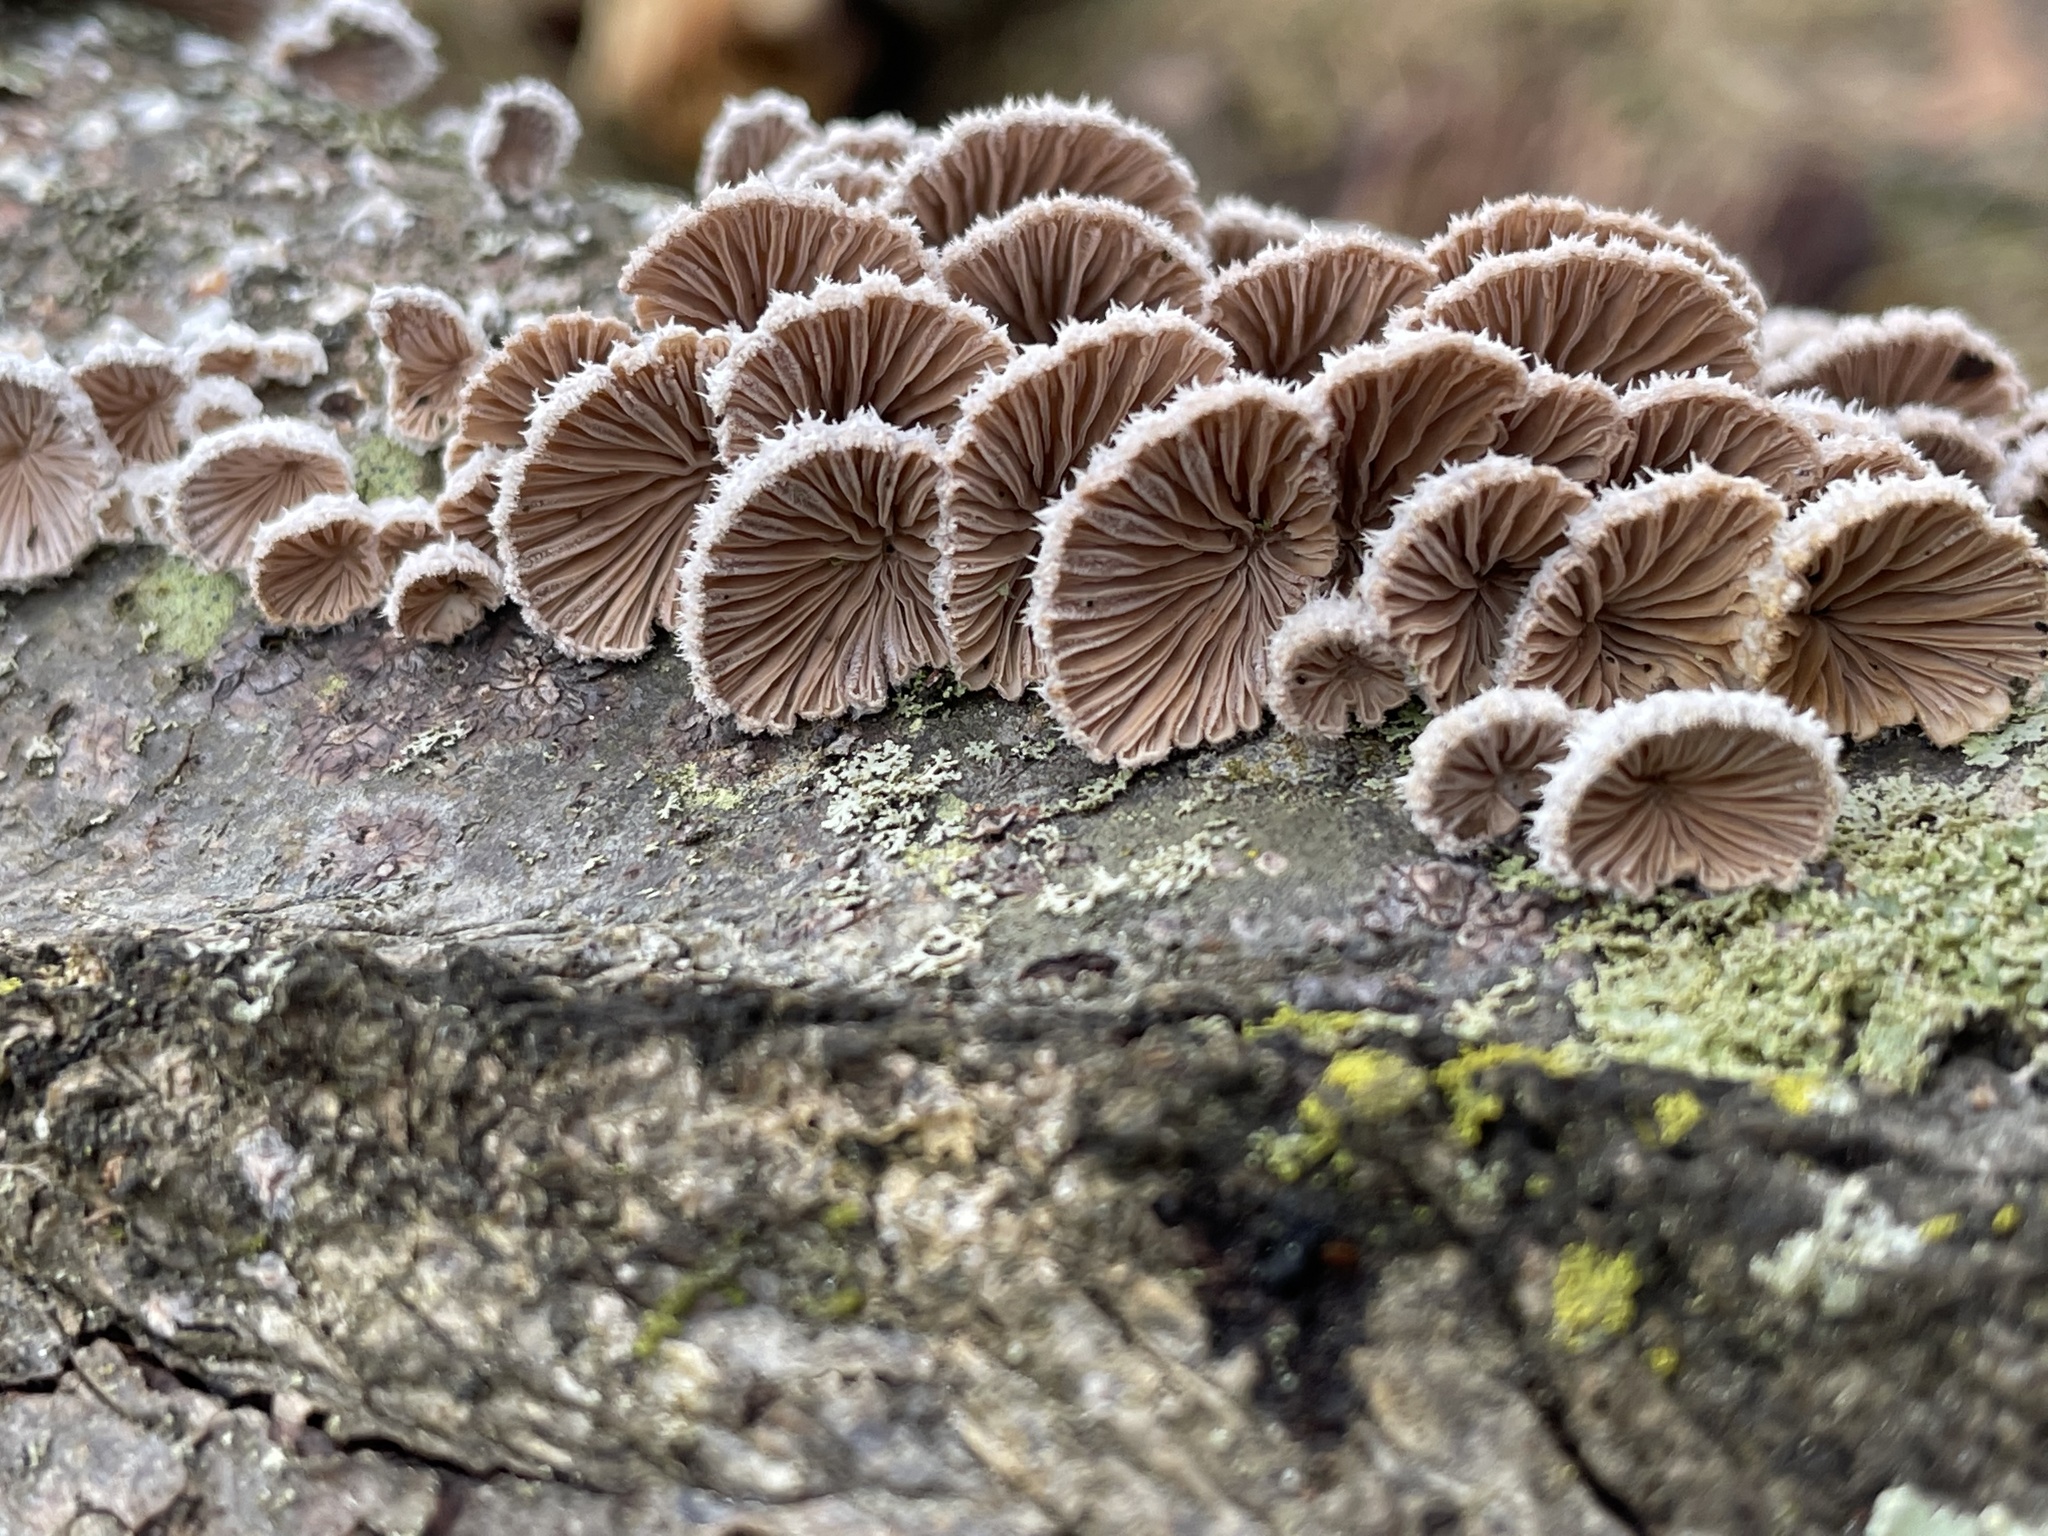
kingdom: Fungi
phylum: Basidiomycota
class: Agaricomycetes
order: Agaricales
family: Schizophyllaceae
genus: Schizophyllum
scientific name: Schizophyllum commune
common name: Common porecrust
